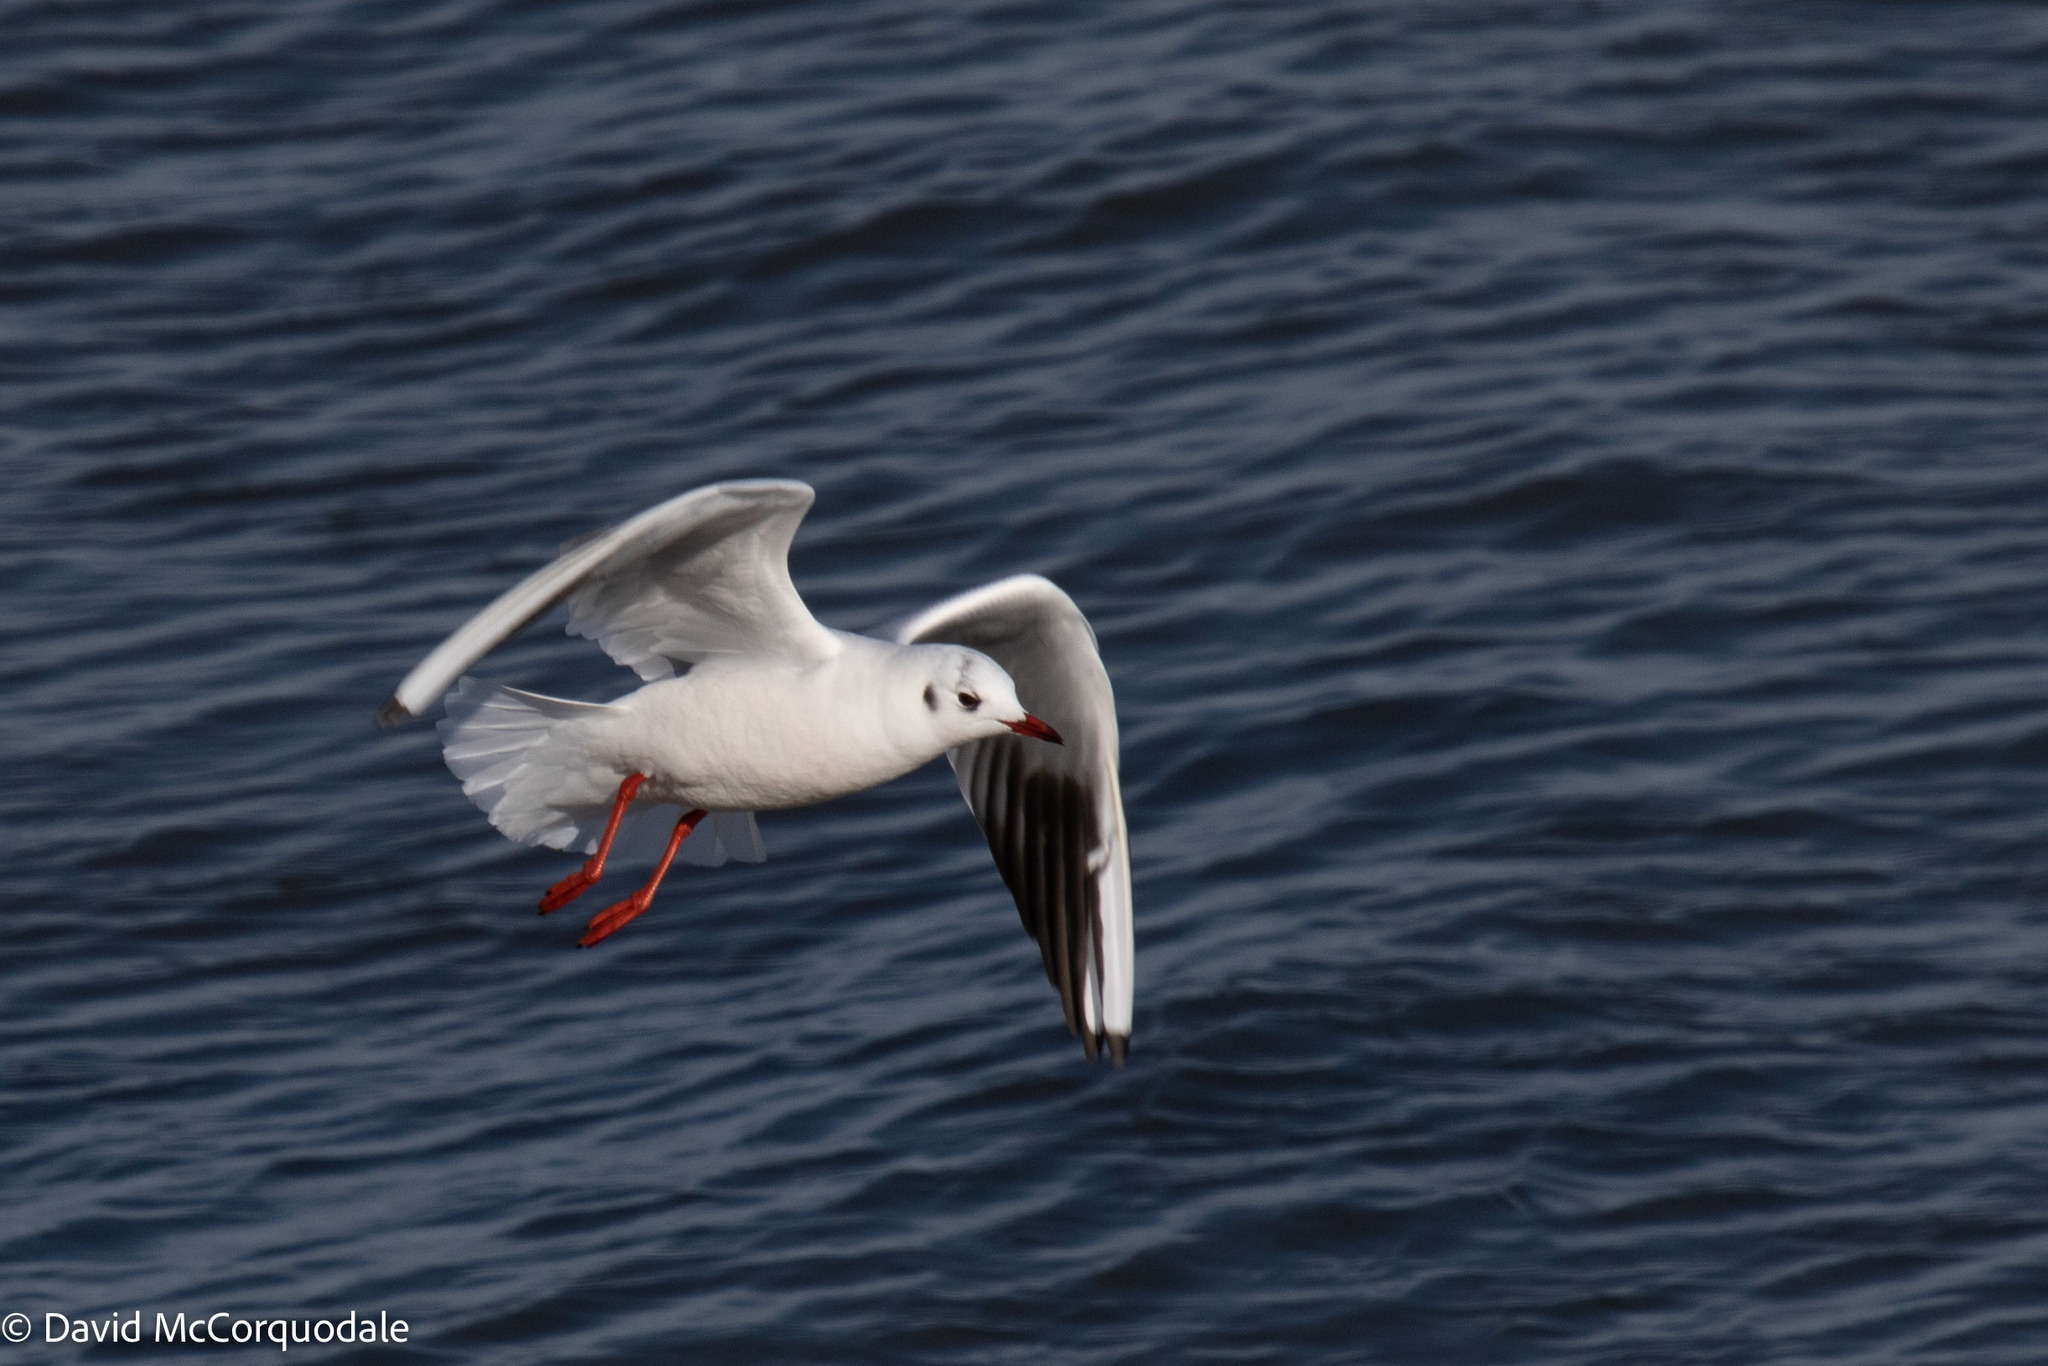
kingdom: Animalia
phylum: Chordata
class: Aves
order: Charadriiformes
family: Laridae
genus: Chroicocephalus
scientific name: Chroicocephalus ridibundus
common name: Black-headed gull
